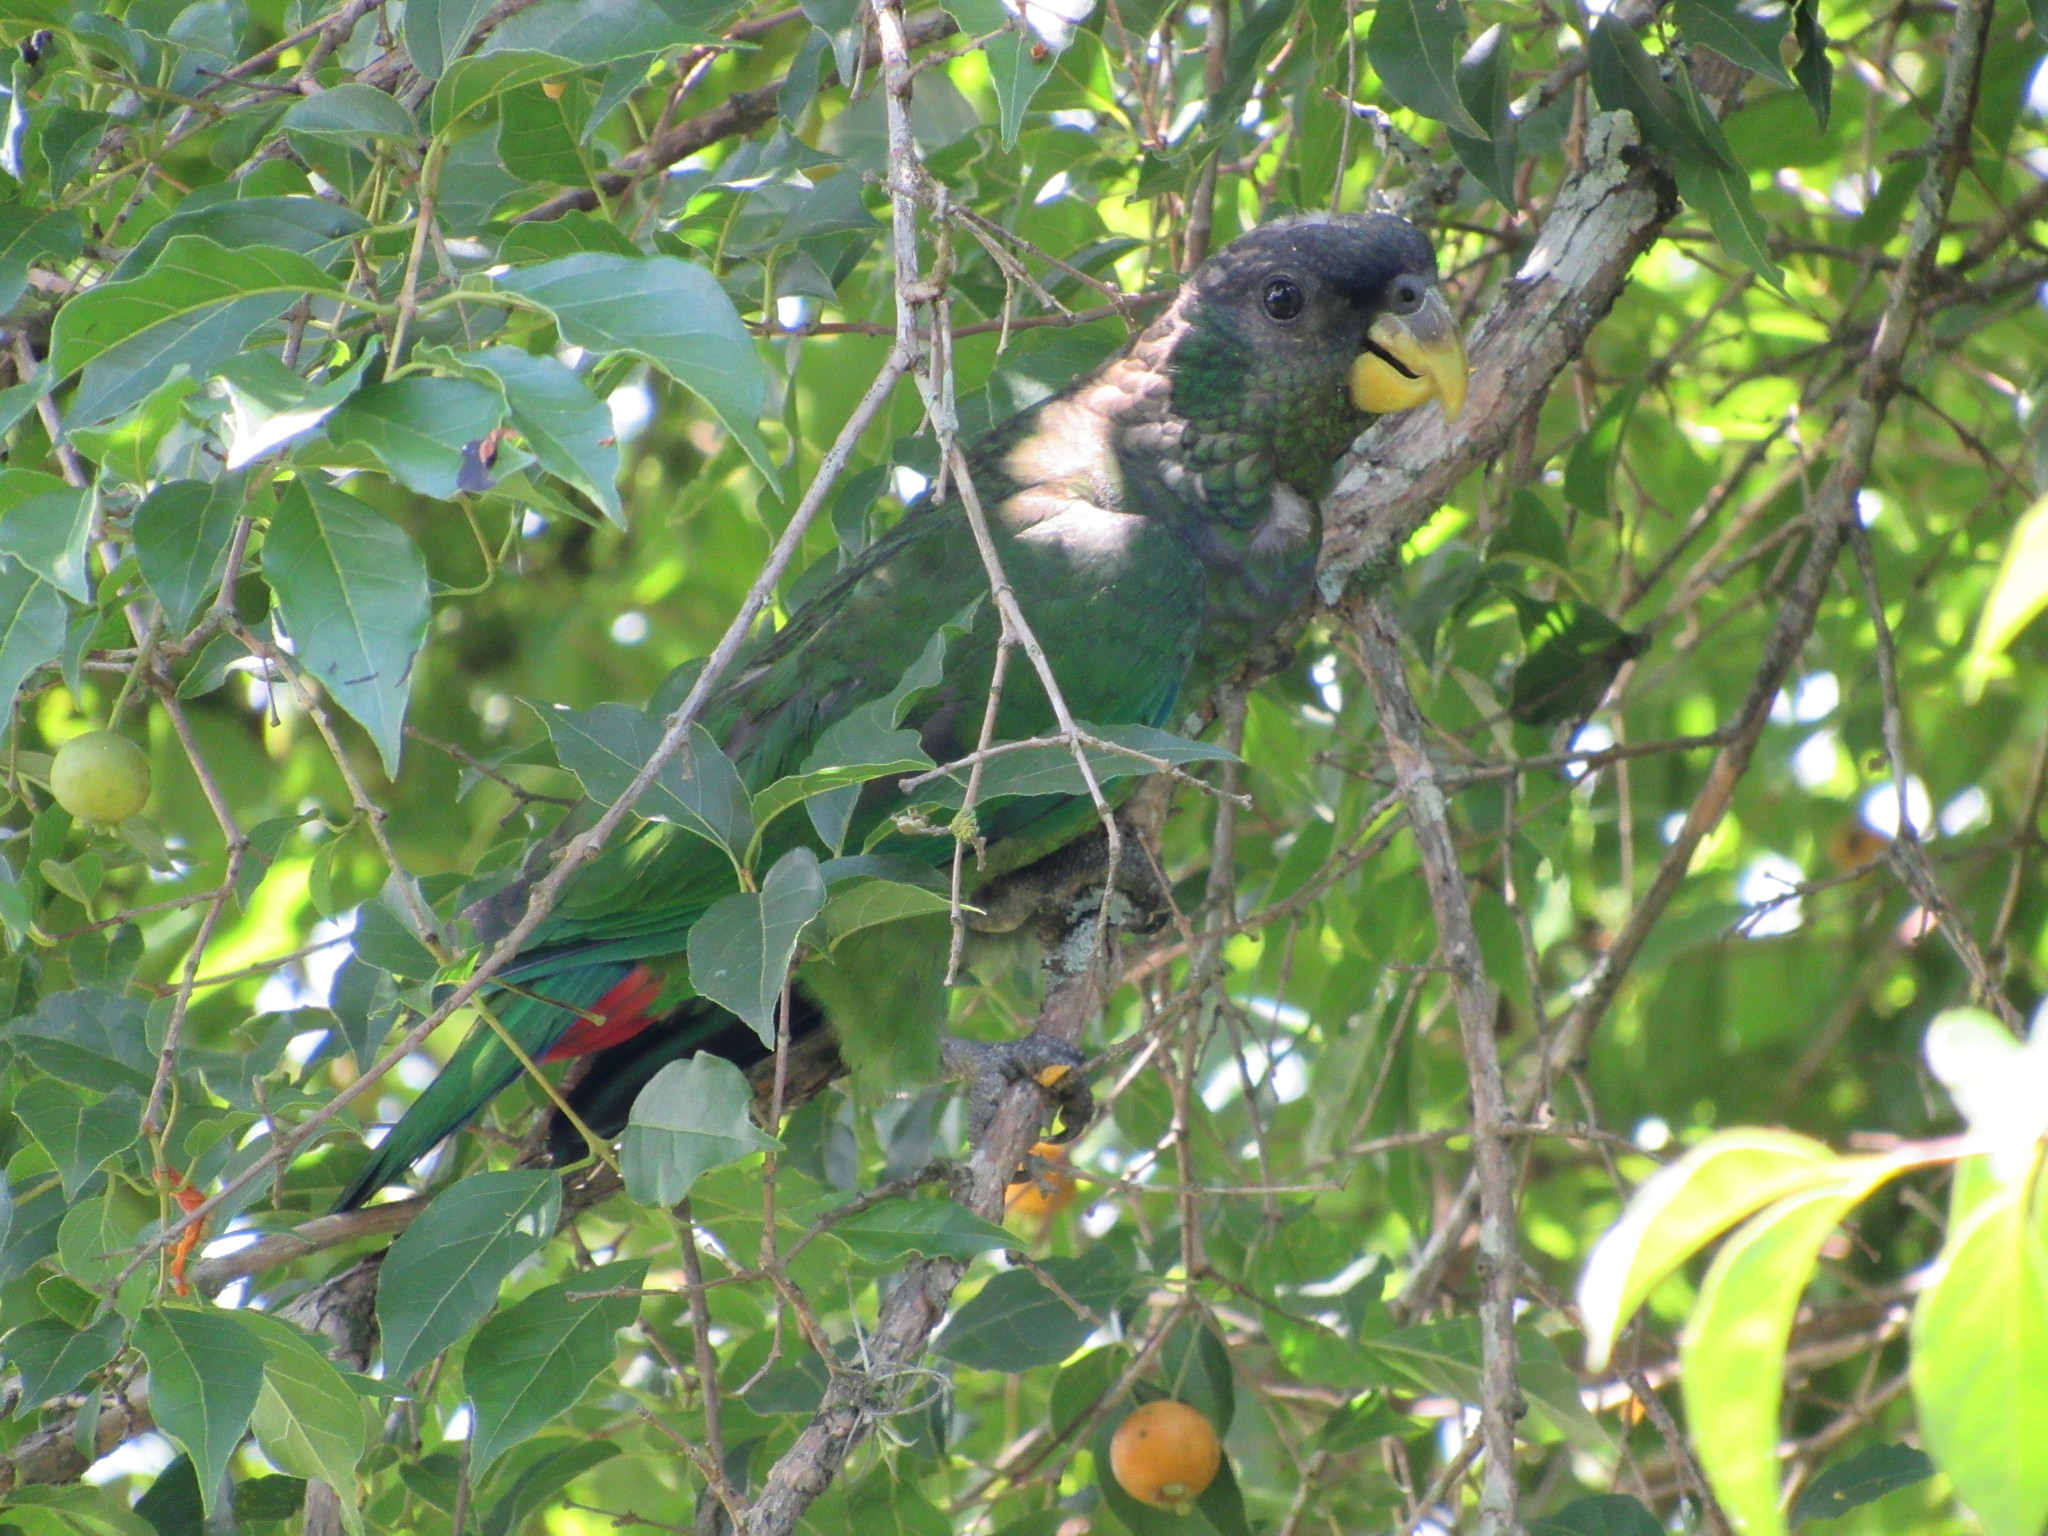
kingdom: Animalia
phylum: Chordata
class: Aves
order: Psittaciformes
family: Psittacidae
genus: Pionus
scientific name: Pionus maximiliani
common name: Scaly-headed parrot
